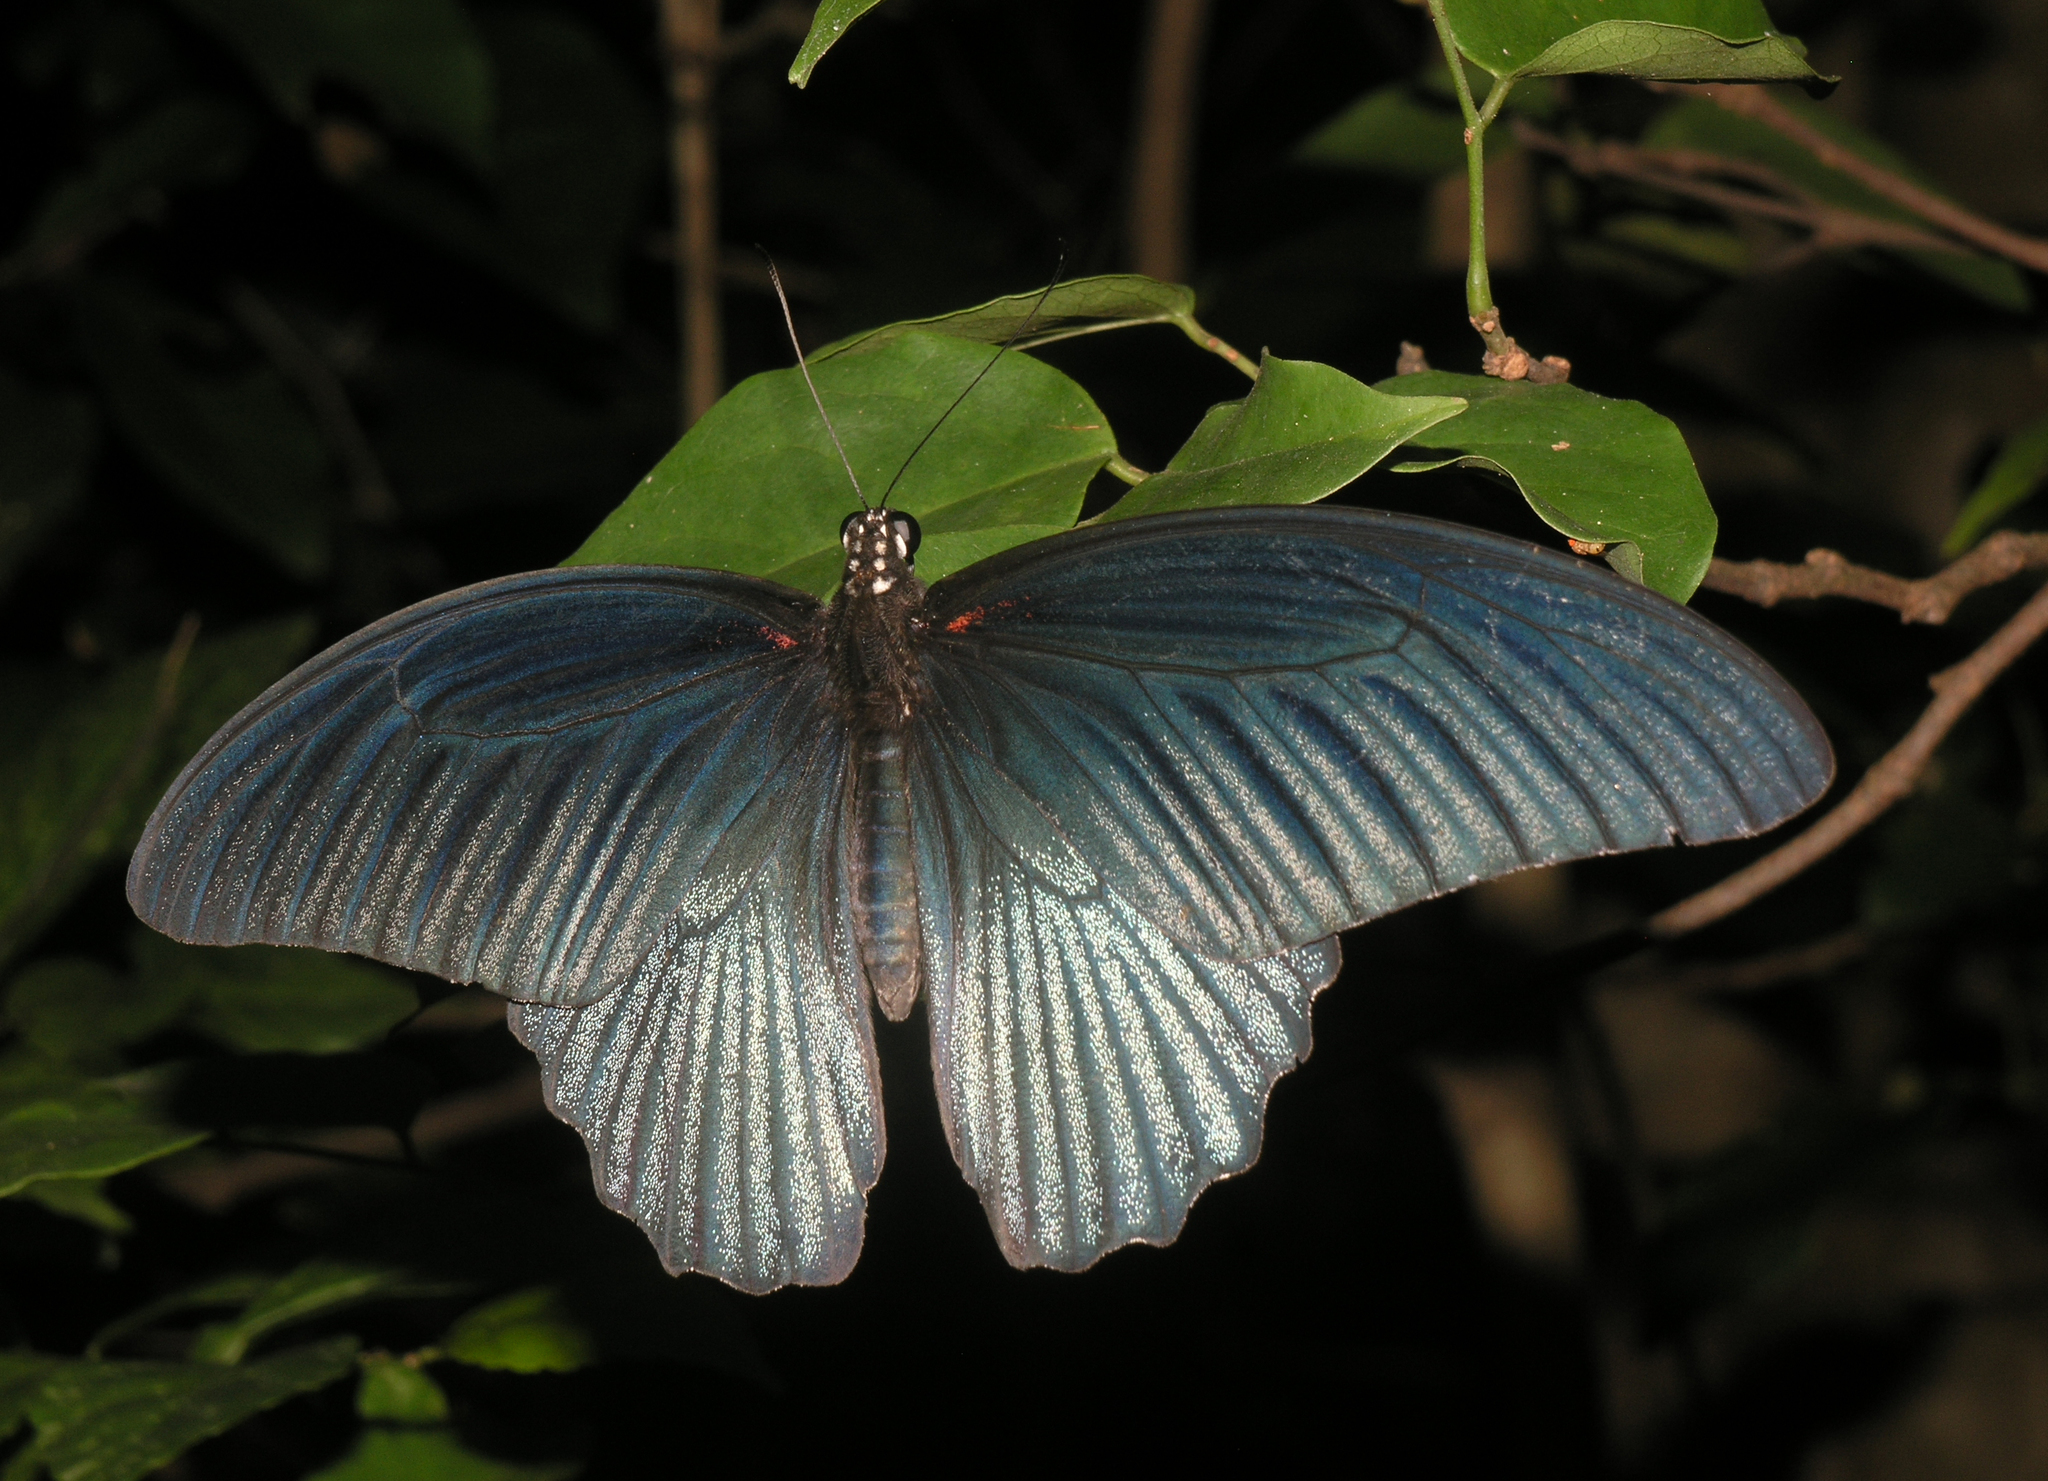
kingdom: Animalia
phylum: Arthropoda
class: Insecta
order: Lepidoptera
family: Papilionidae
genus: Papilio
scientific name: Papilio memnon
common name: Great mormon
